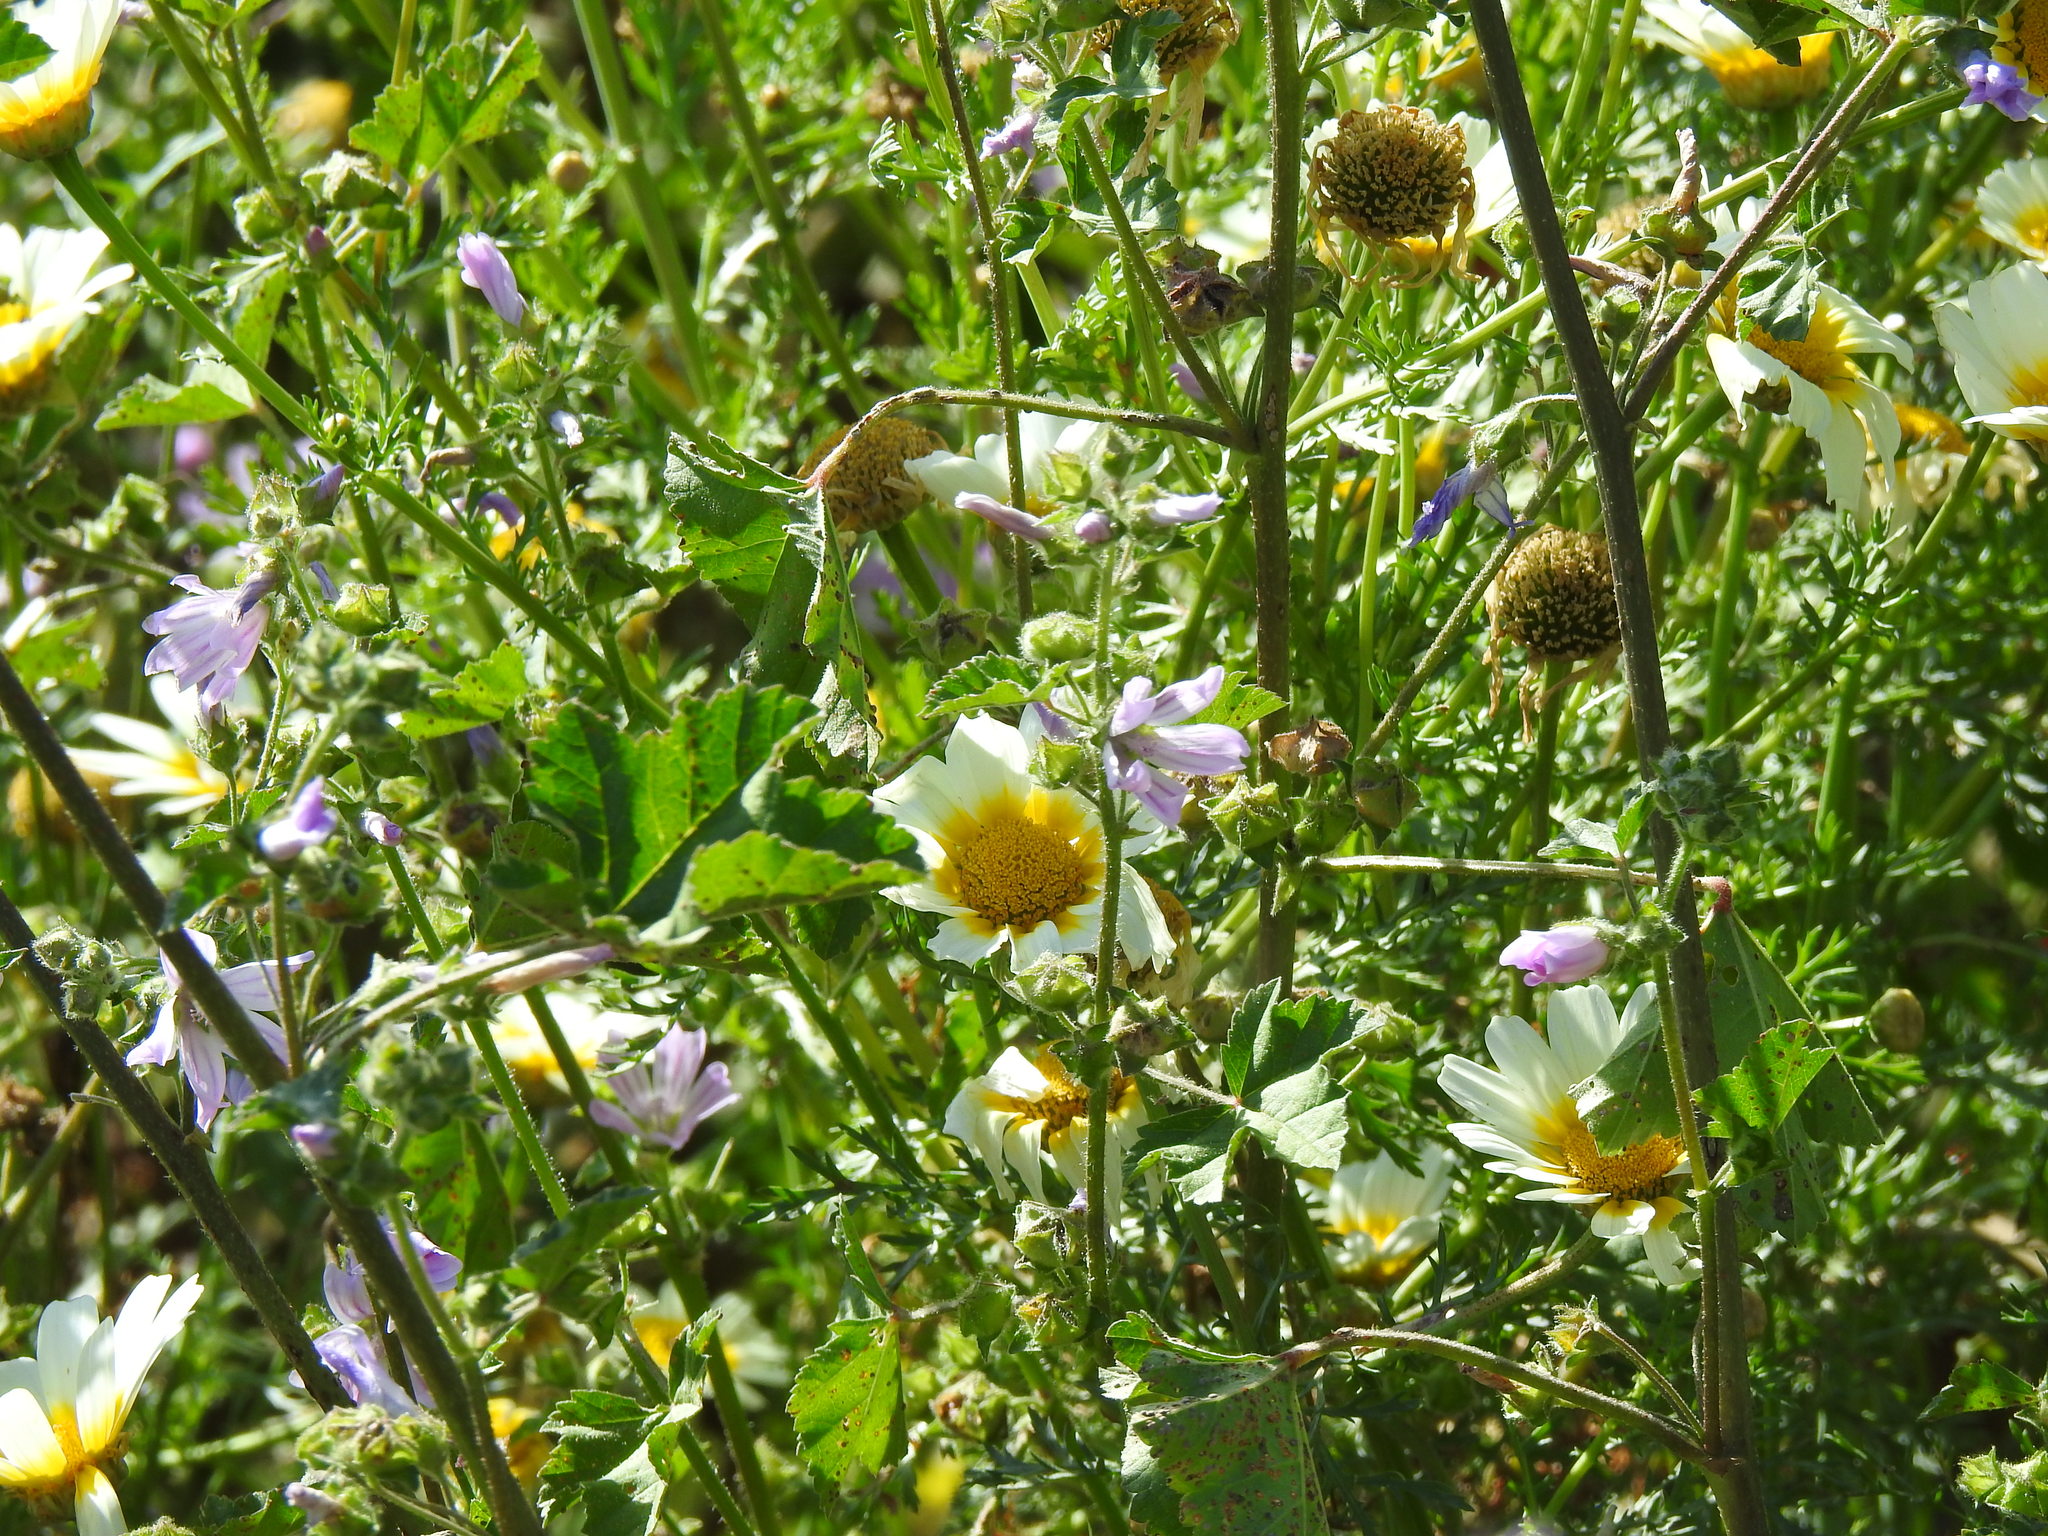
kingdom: Plantae
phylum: Tracheophyta
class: Magnoliopsida
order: Asterales
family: Asteraceae
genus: Glebionis
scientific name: Glebionis coronaria
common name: Crowndaisy
